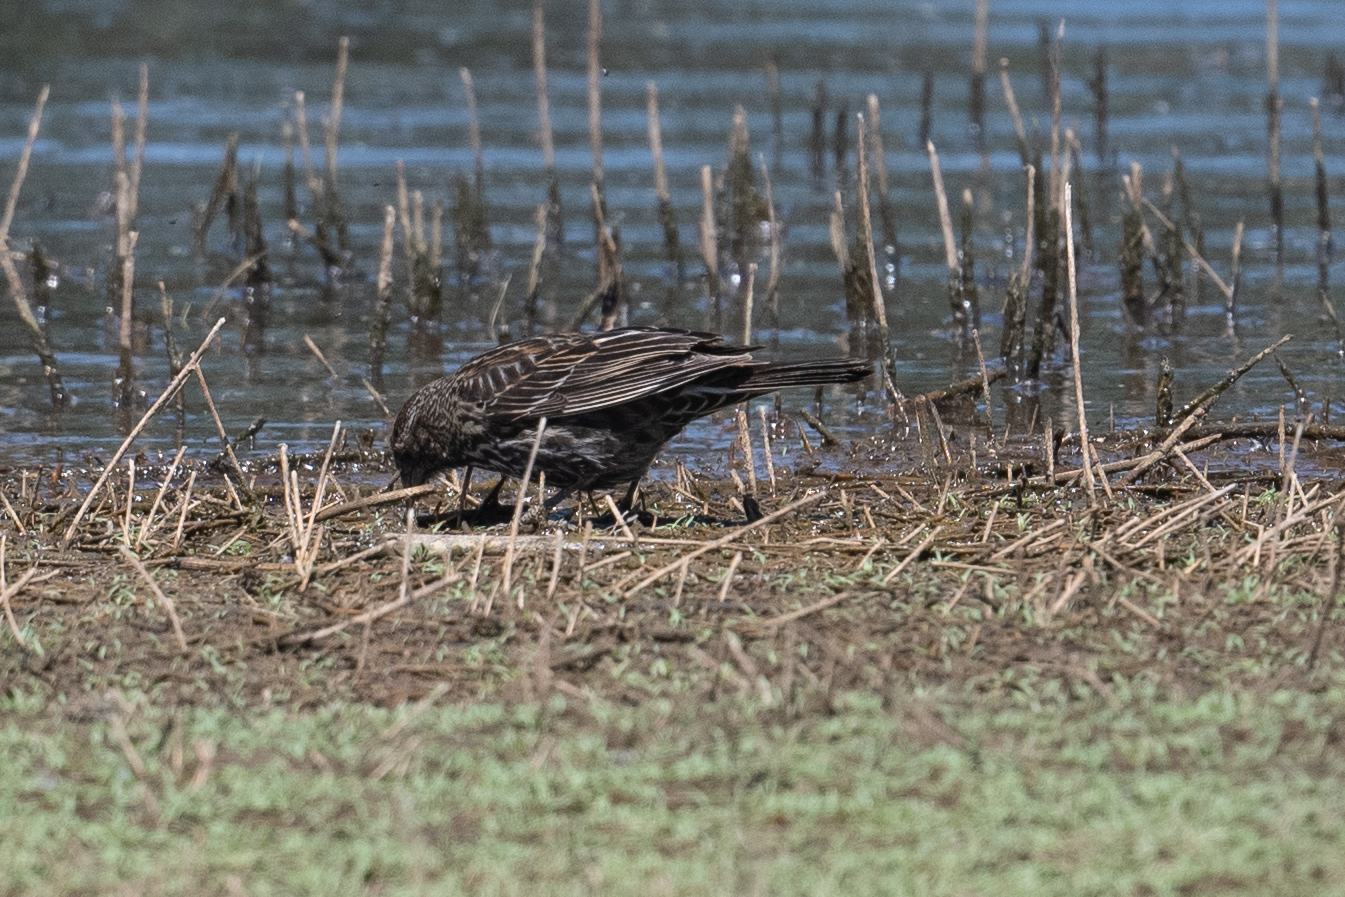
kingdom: Animalia
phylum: Chordata
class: Aves
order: Passeriformes
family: Icteridae
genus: Agelaius
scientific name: Agelaius phoeniceus
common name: Red-winged blackbird
